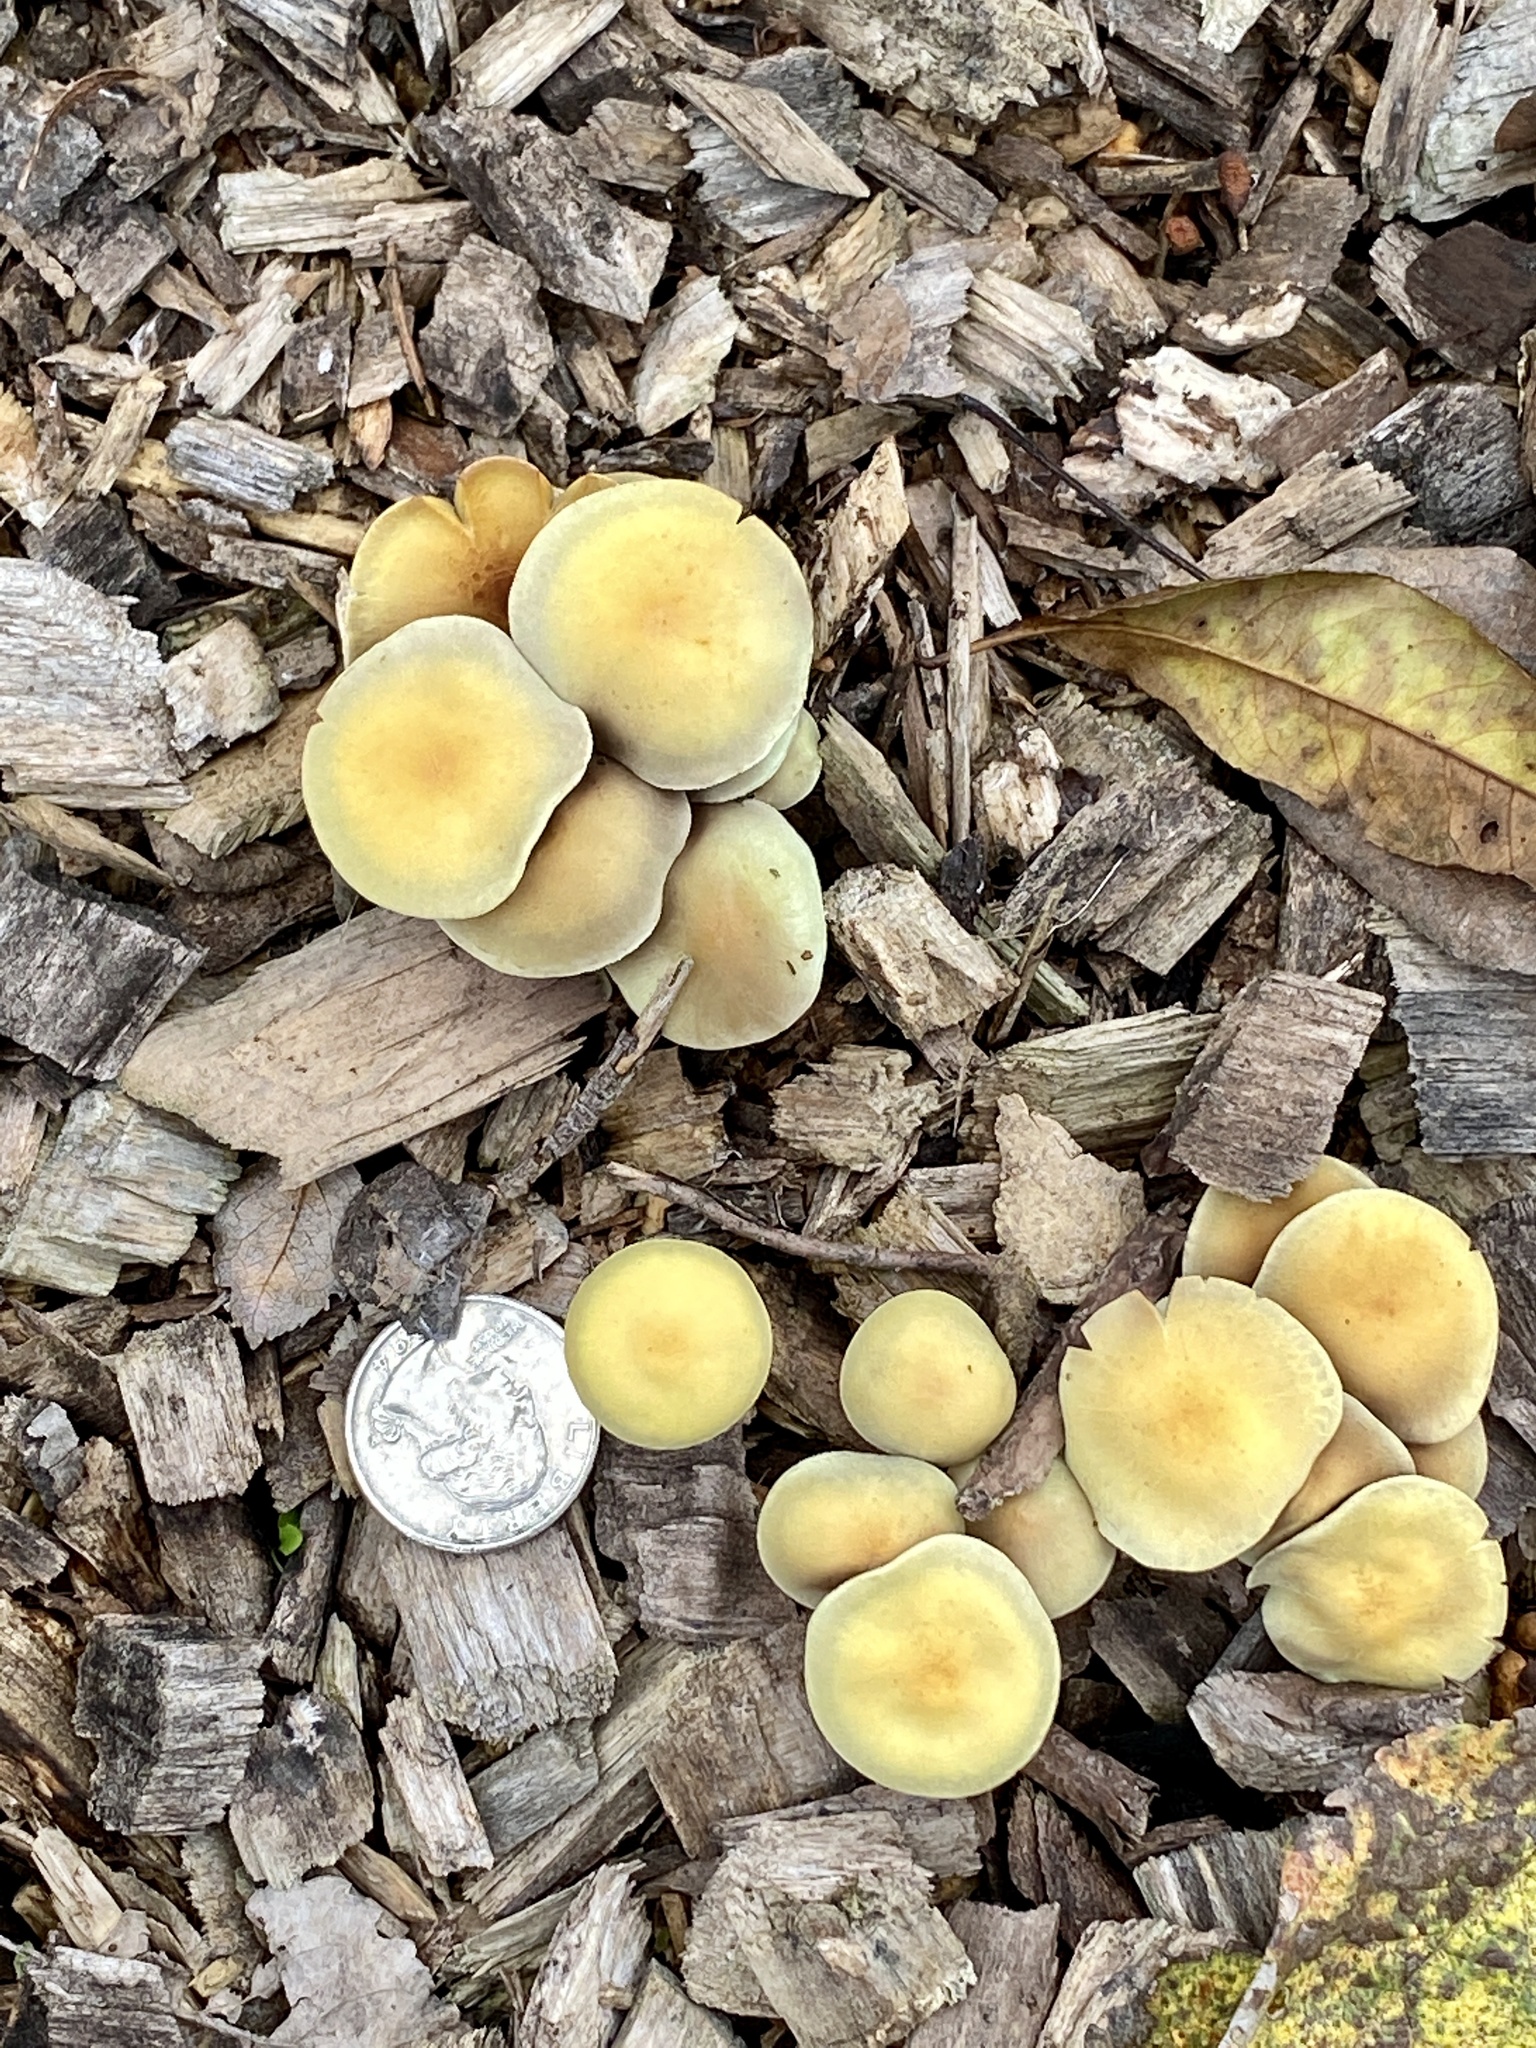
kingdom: Fungi
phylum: Basidiomycota
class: Agaricomycetes
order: Agaricales
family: Strophariaceae
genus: Hypholoma
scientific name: Hypholoma fasciculare
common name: Sulphur tuft
